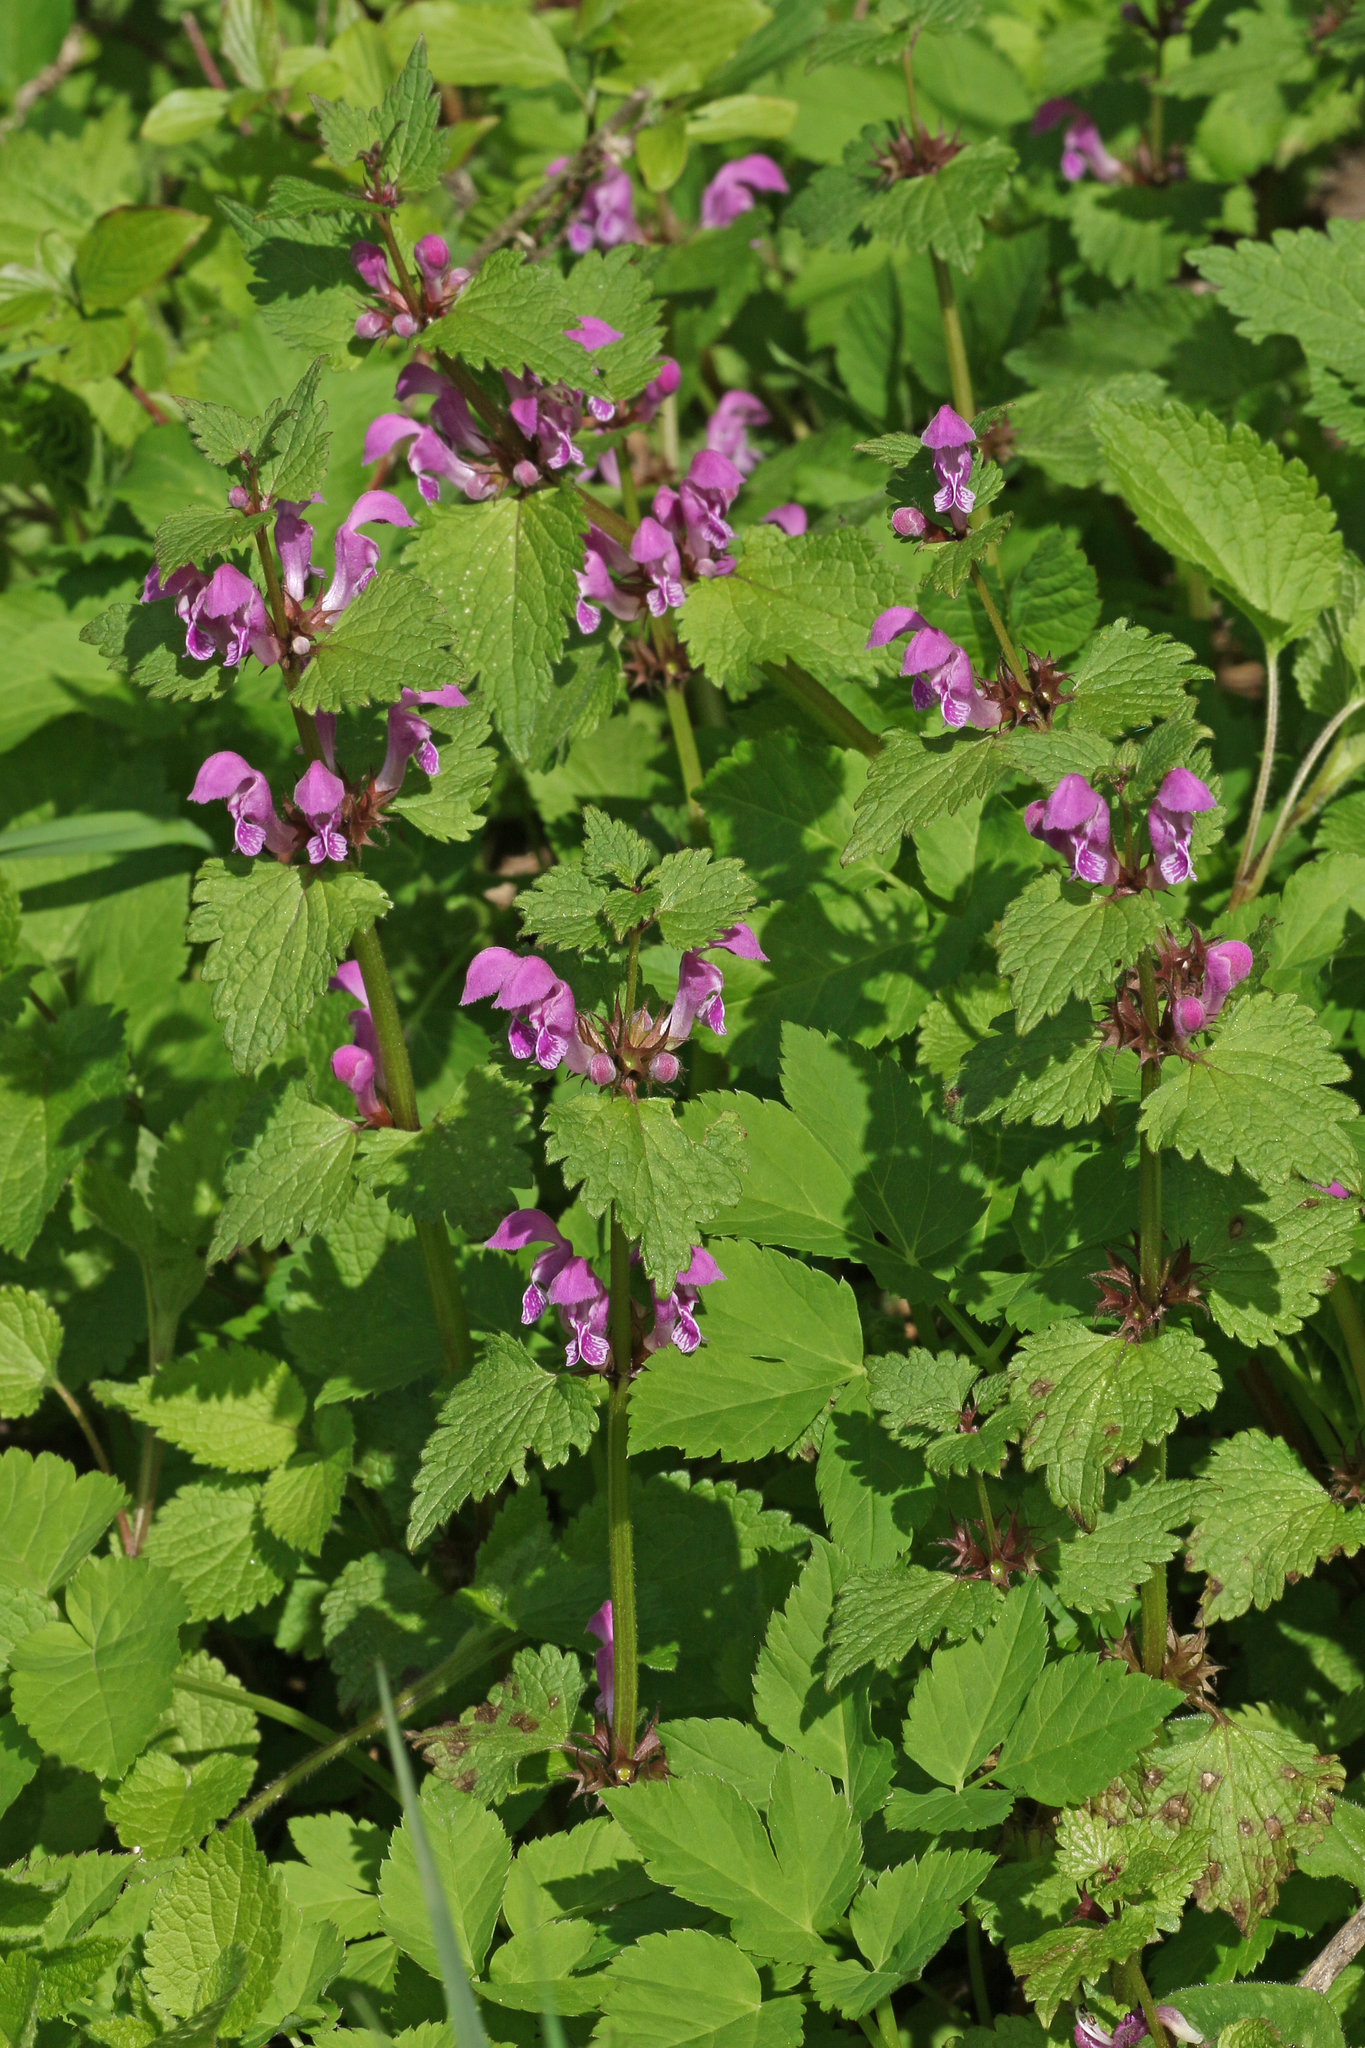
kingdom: Plantae
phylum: Tracheophyta
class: Magnoliopsida
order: Lamiales
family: Lamiaceae
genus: Lamium
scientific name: Lamium maculatum
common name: Spotted dead-nettle
